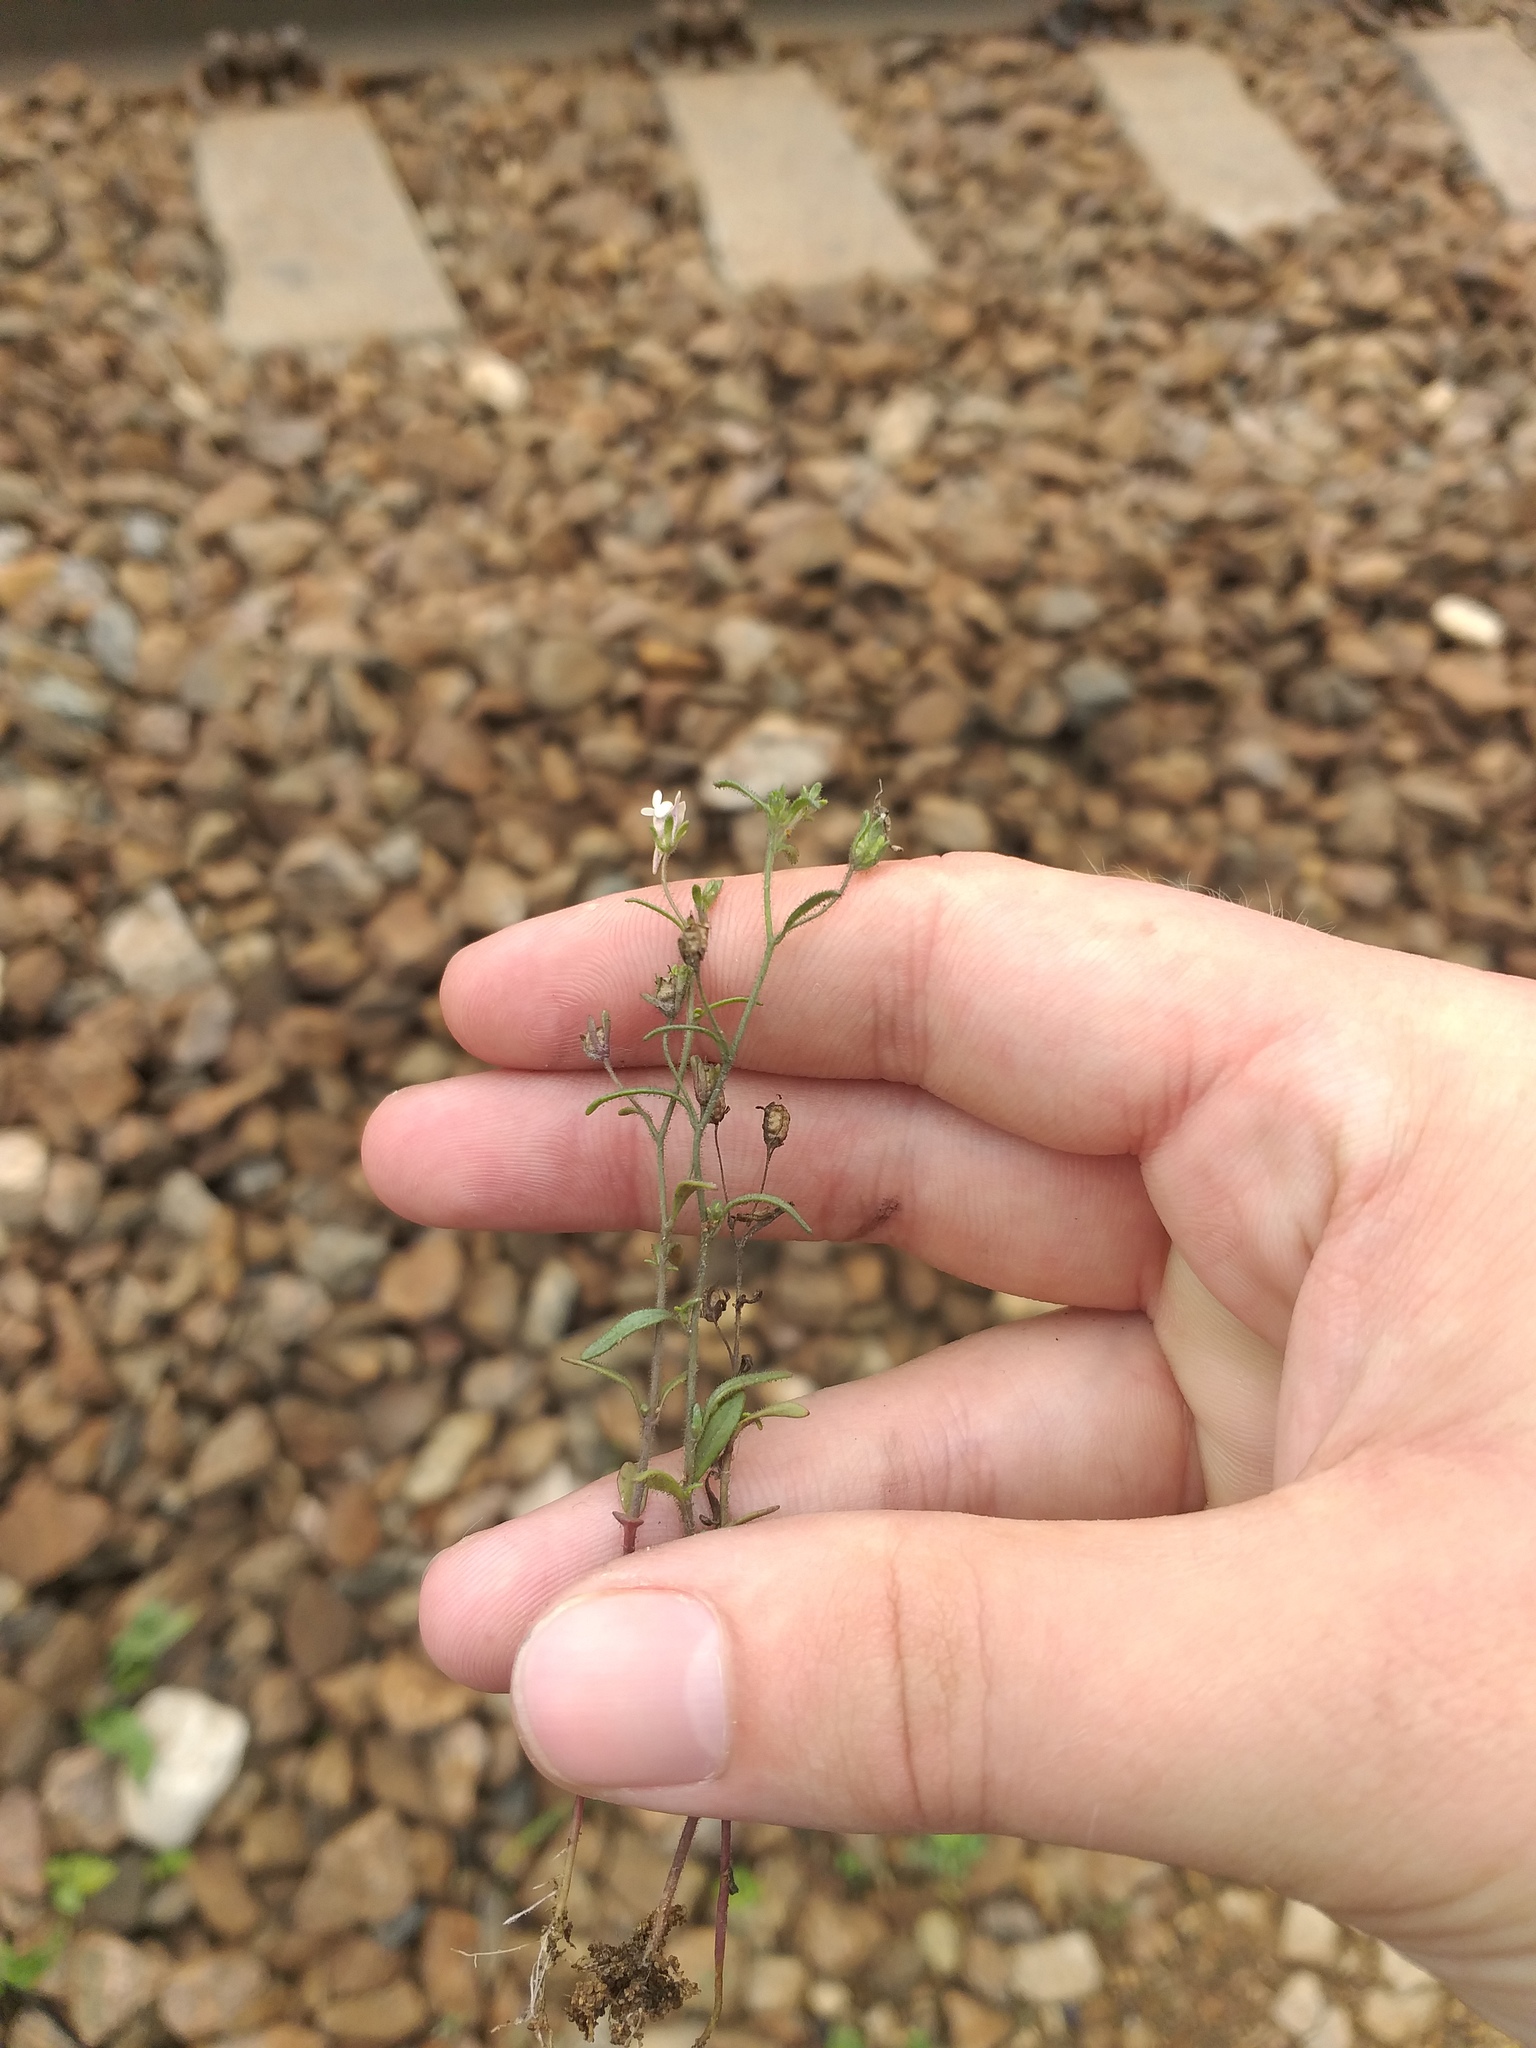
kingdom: Plantae
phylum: Tracheophyta
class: Magnoliopsida
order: Lamiales
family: Plantaginaceae
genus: Chaenorhinum
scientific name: Chaenorhinum minus
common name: Dwarf snapdragon
